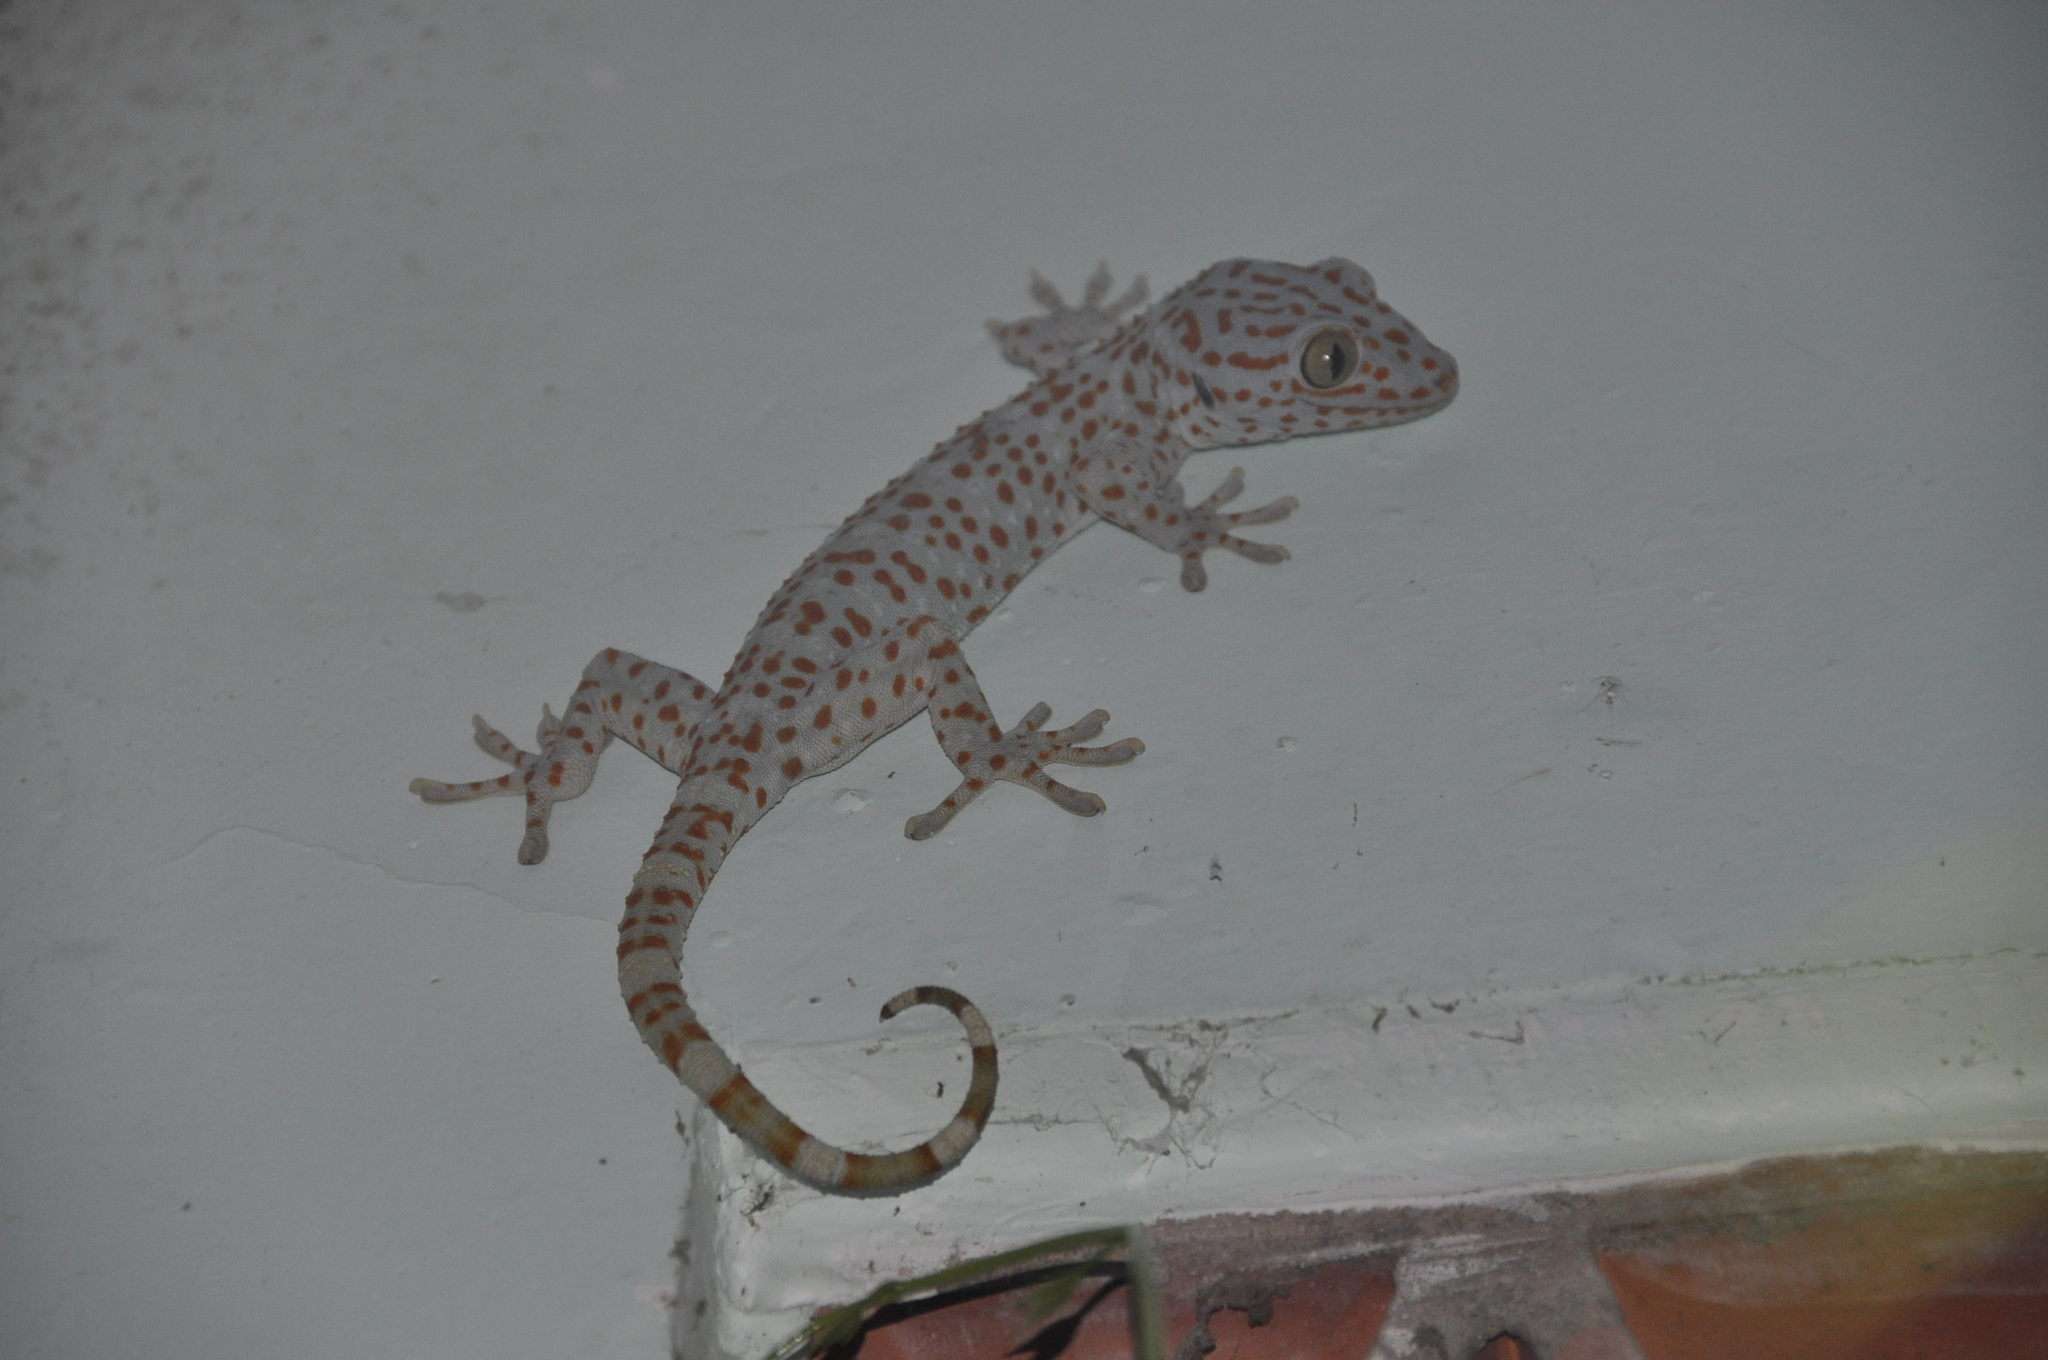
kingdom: Animalia
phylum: Chordata
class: Squamata
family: Gekkonidae
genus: Gekko
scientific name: Gekko gecko
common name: Tokay gecko
